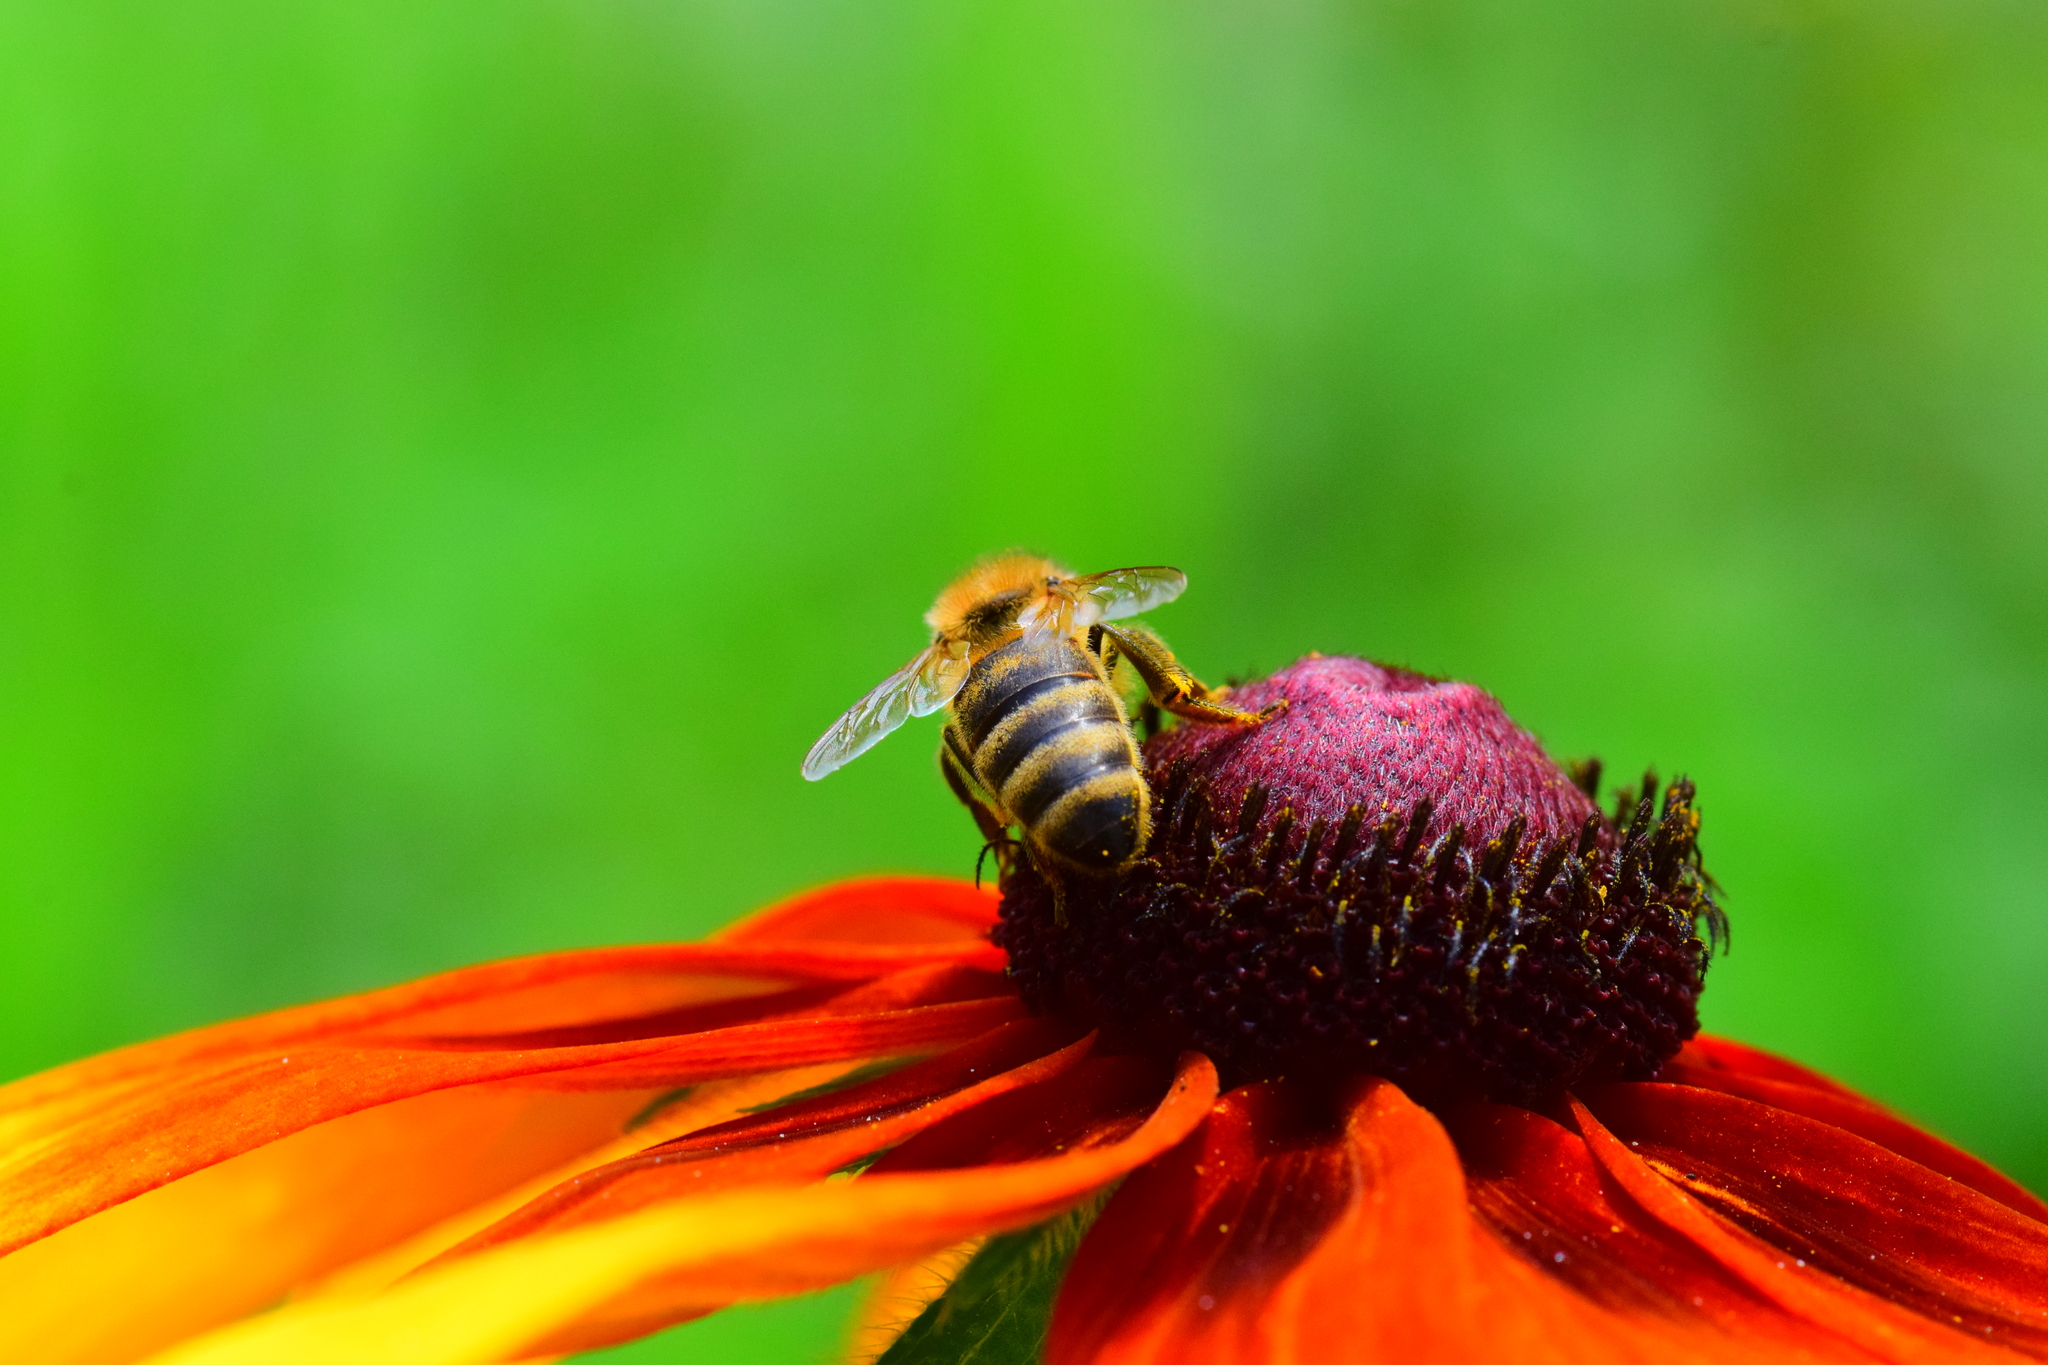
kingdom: Animalia
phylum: Arthropoda
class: Insecta
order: Hymenoptera
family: Apidae
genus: Apis
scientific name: Apis mellifera
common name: Honey bee
